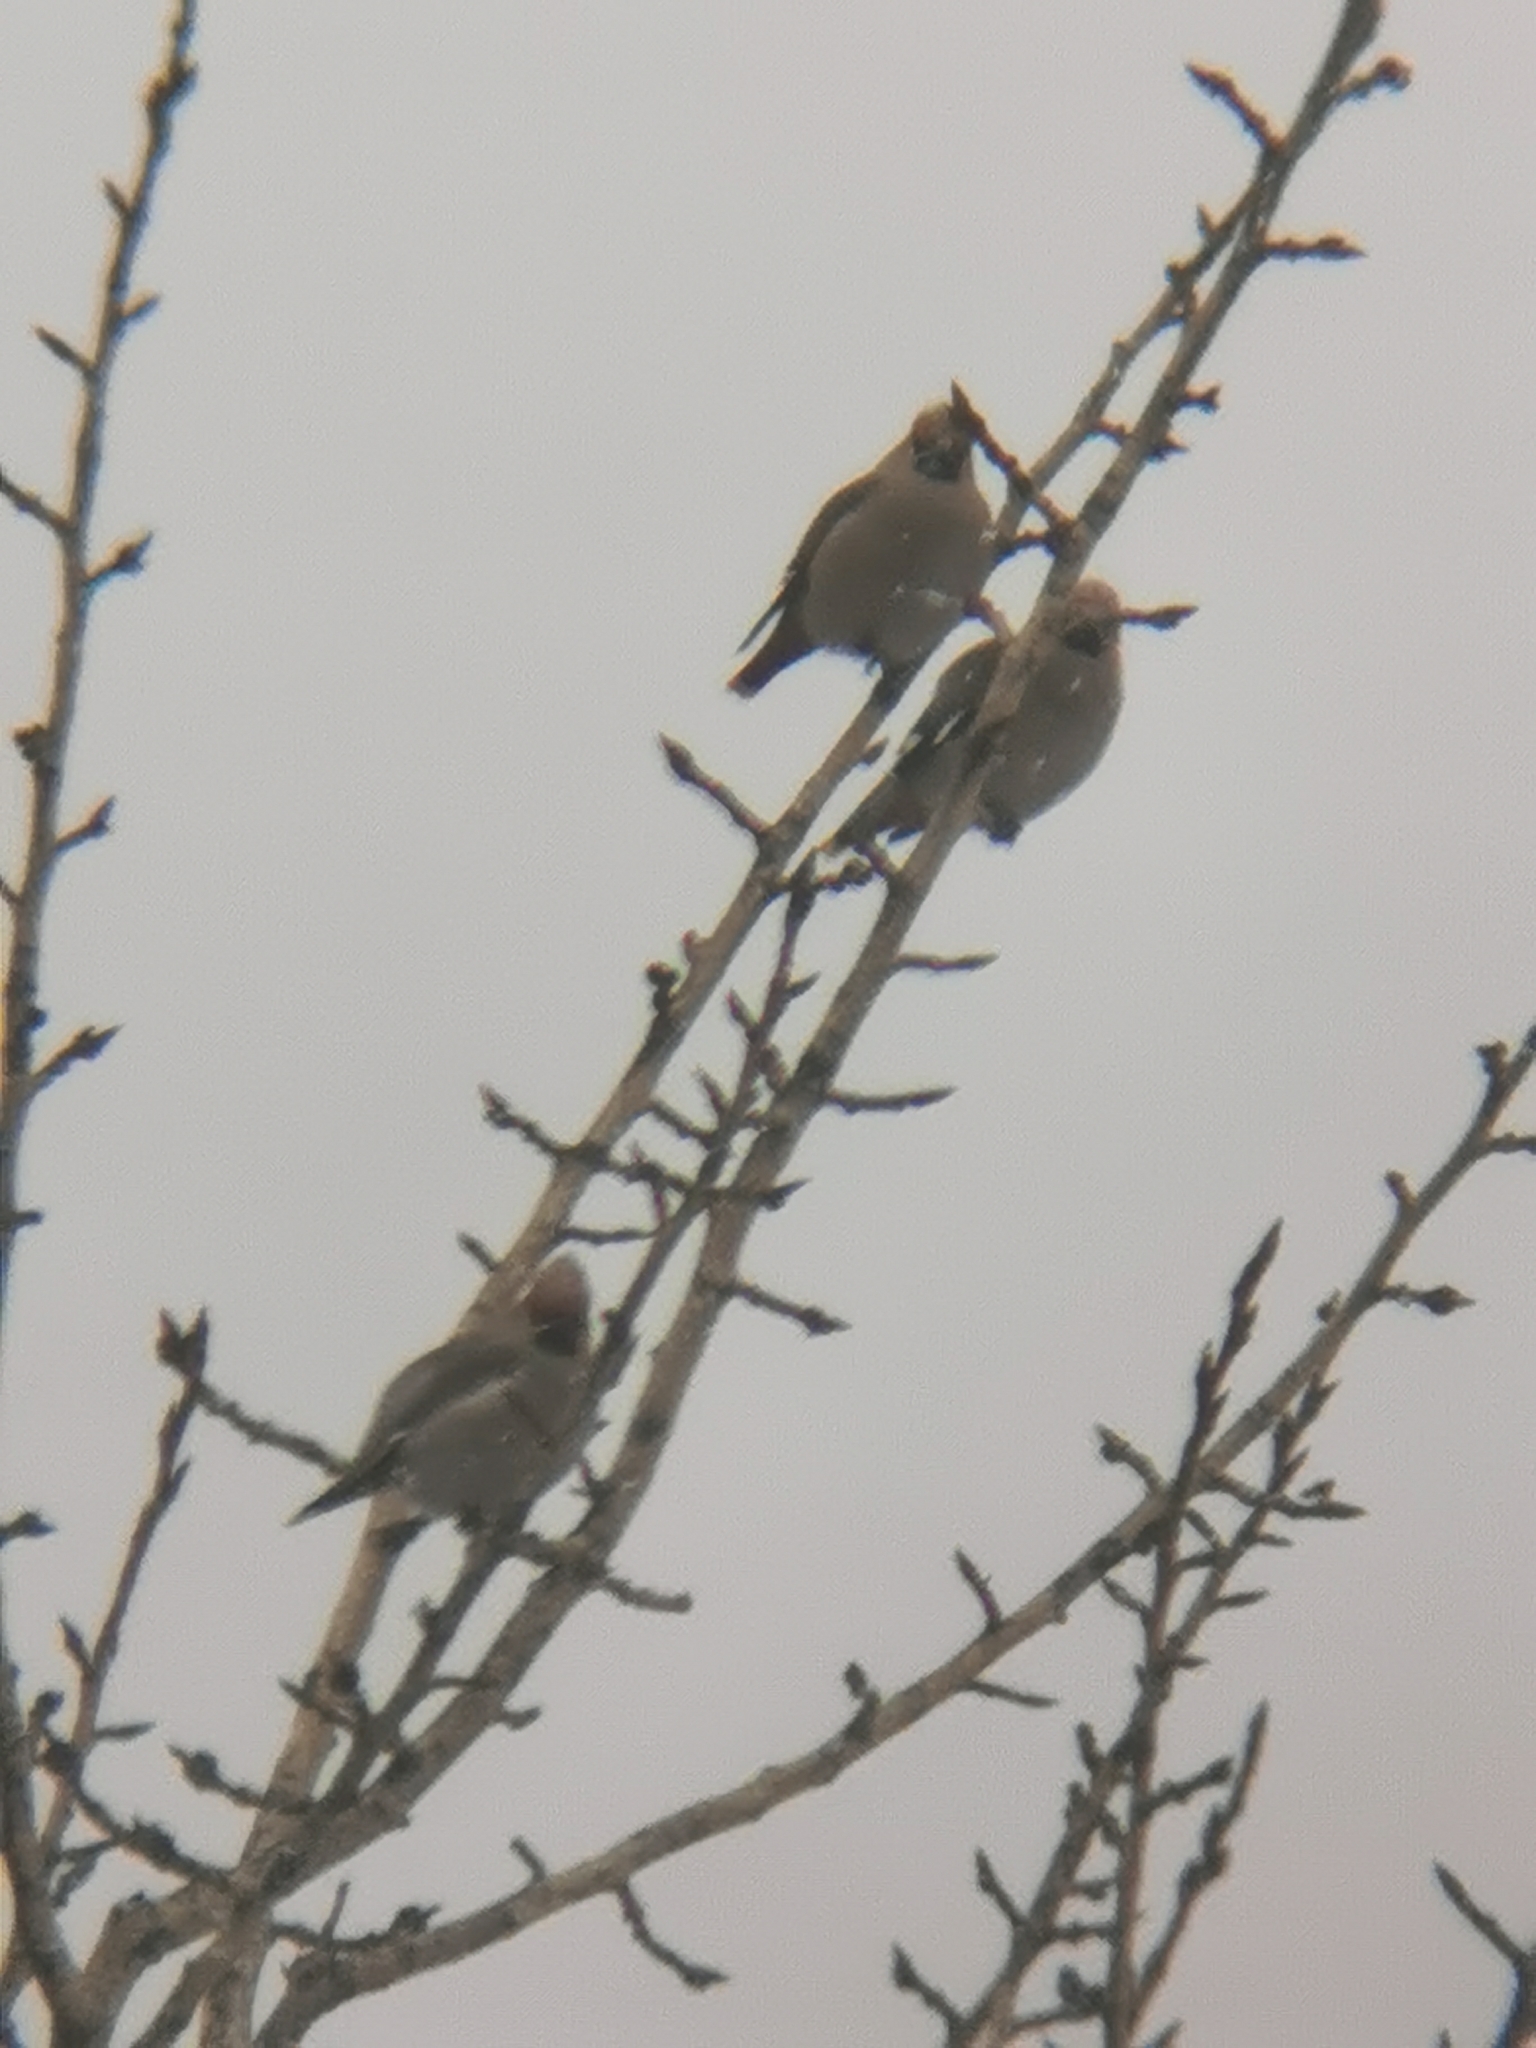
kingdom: Animalia
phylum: Chordata
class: Aves
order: Passeriformes
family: Bombycillidae
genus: Bombycilla
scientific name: Bombycilla garrulus
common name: Bohemian waxwing
